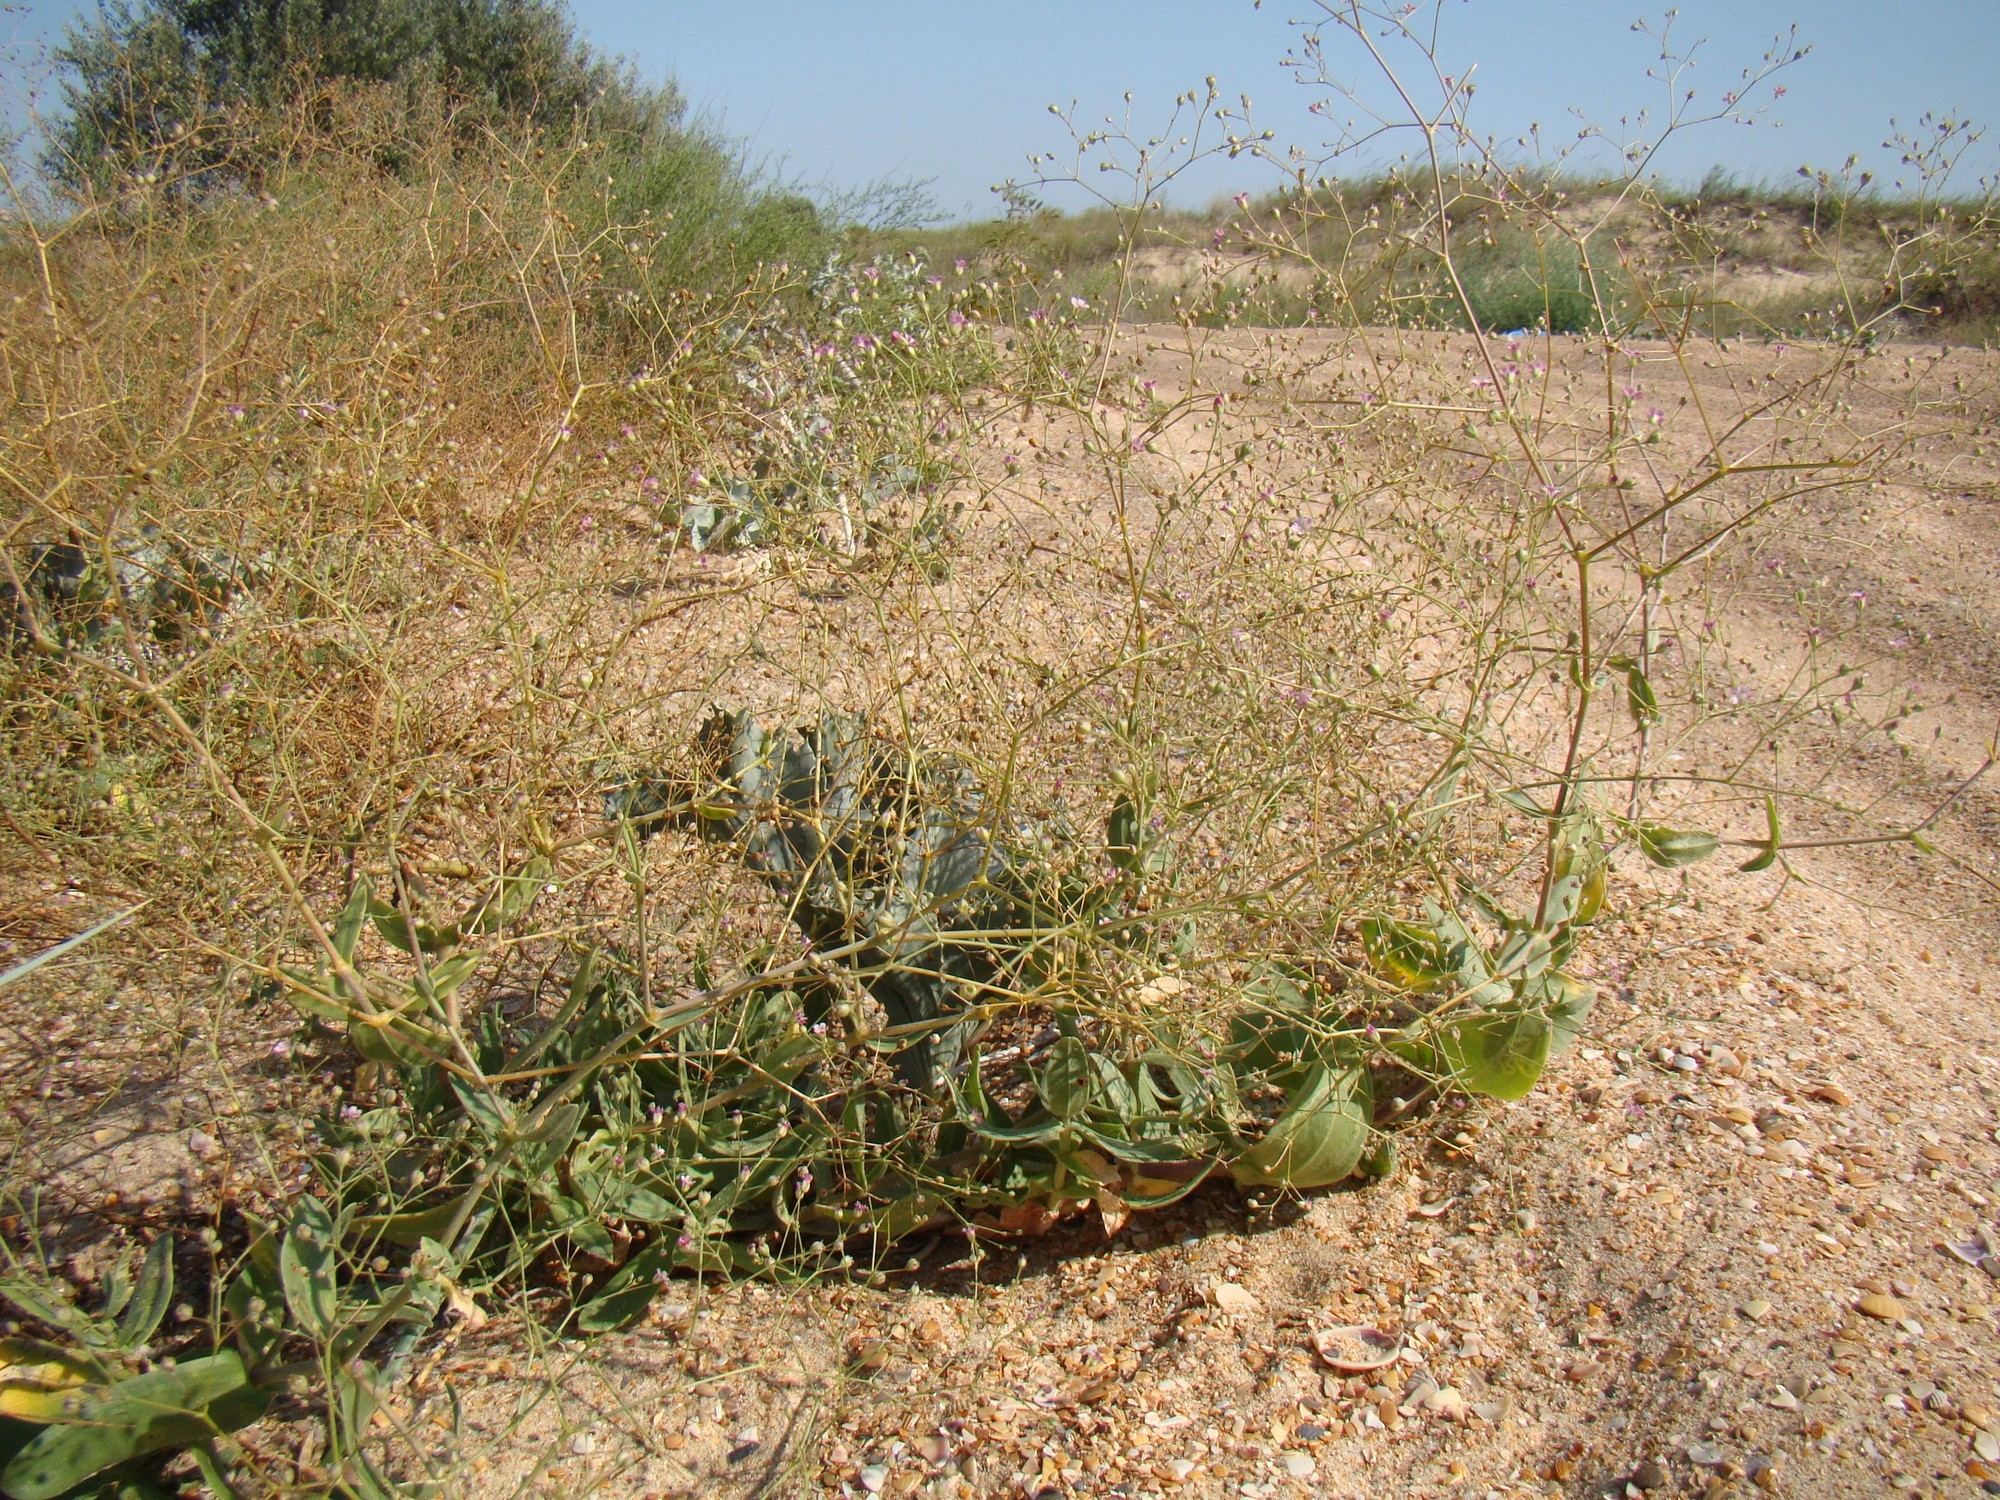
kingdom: Plantae
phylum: Tracheophyta
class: Magnoliopsida
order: Caryophyllales
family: Caryophyllaceae
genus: Gypsophila
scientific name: Gypsophila perfoliata
